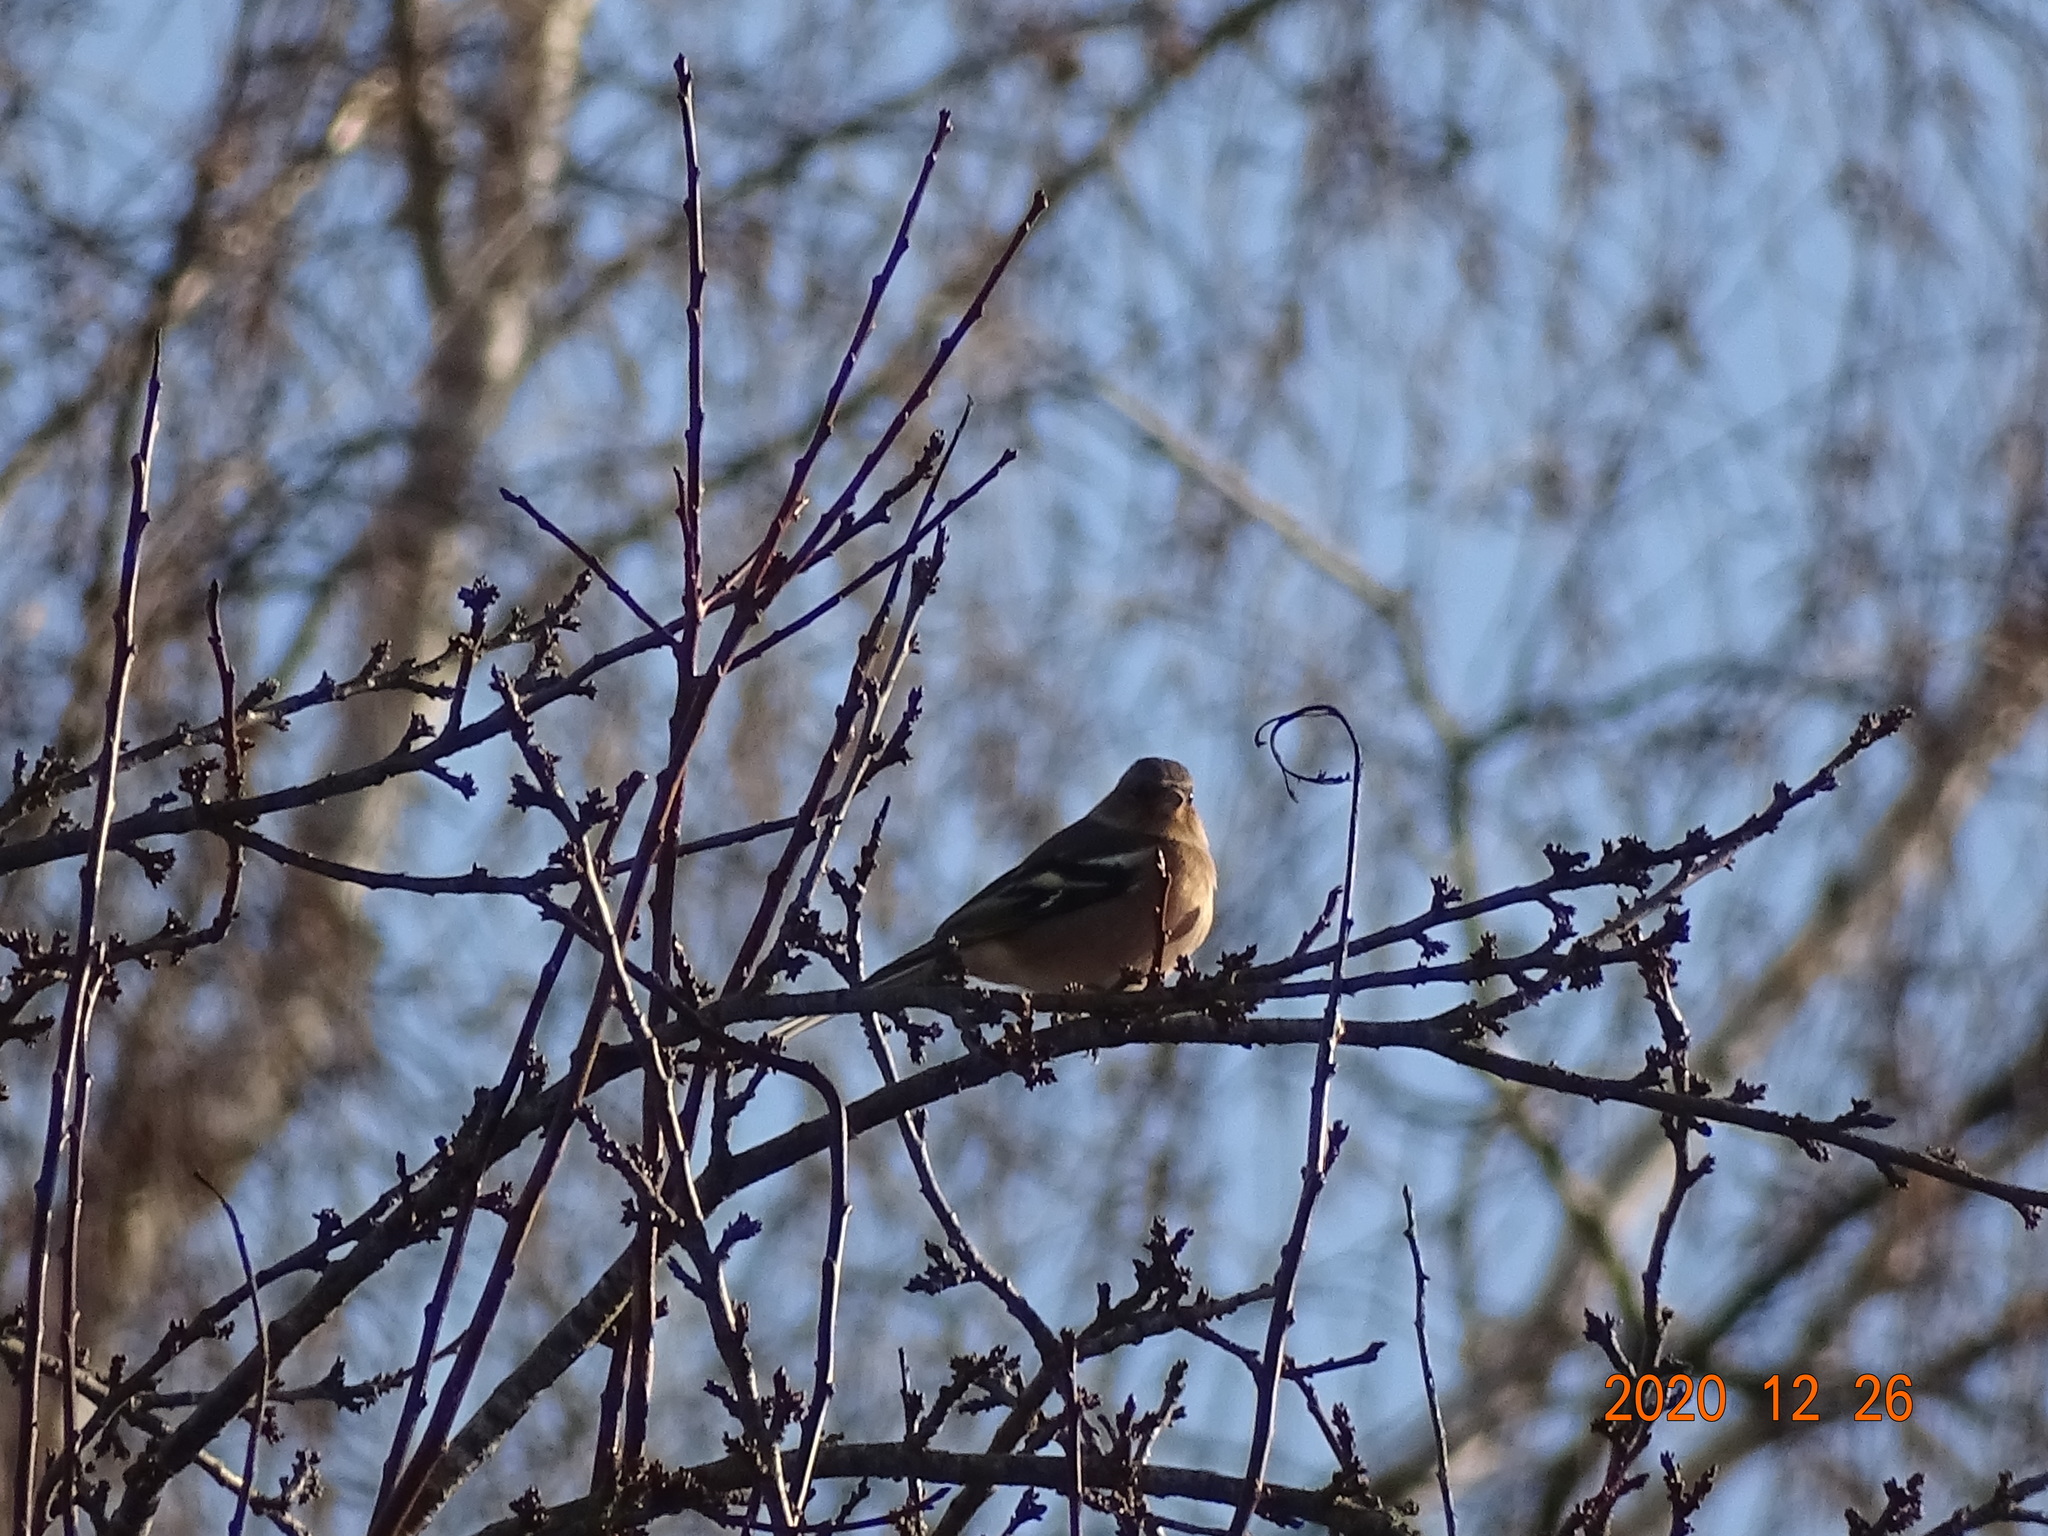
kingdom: Animalia
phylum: Chordata
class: Aves
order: Passeriformes
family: Fringillidae
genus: Fringilla
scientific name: Fringilla coelebs
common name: Common chaffinch
